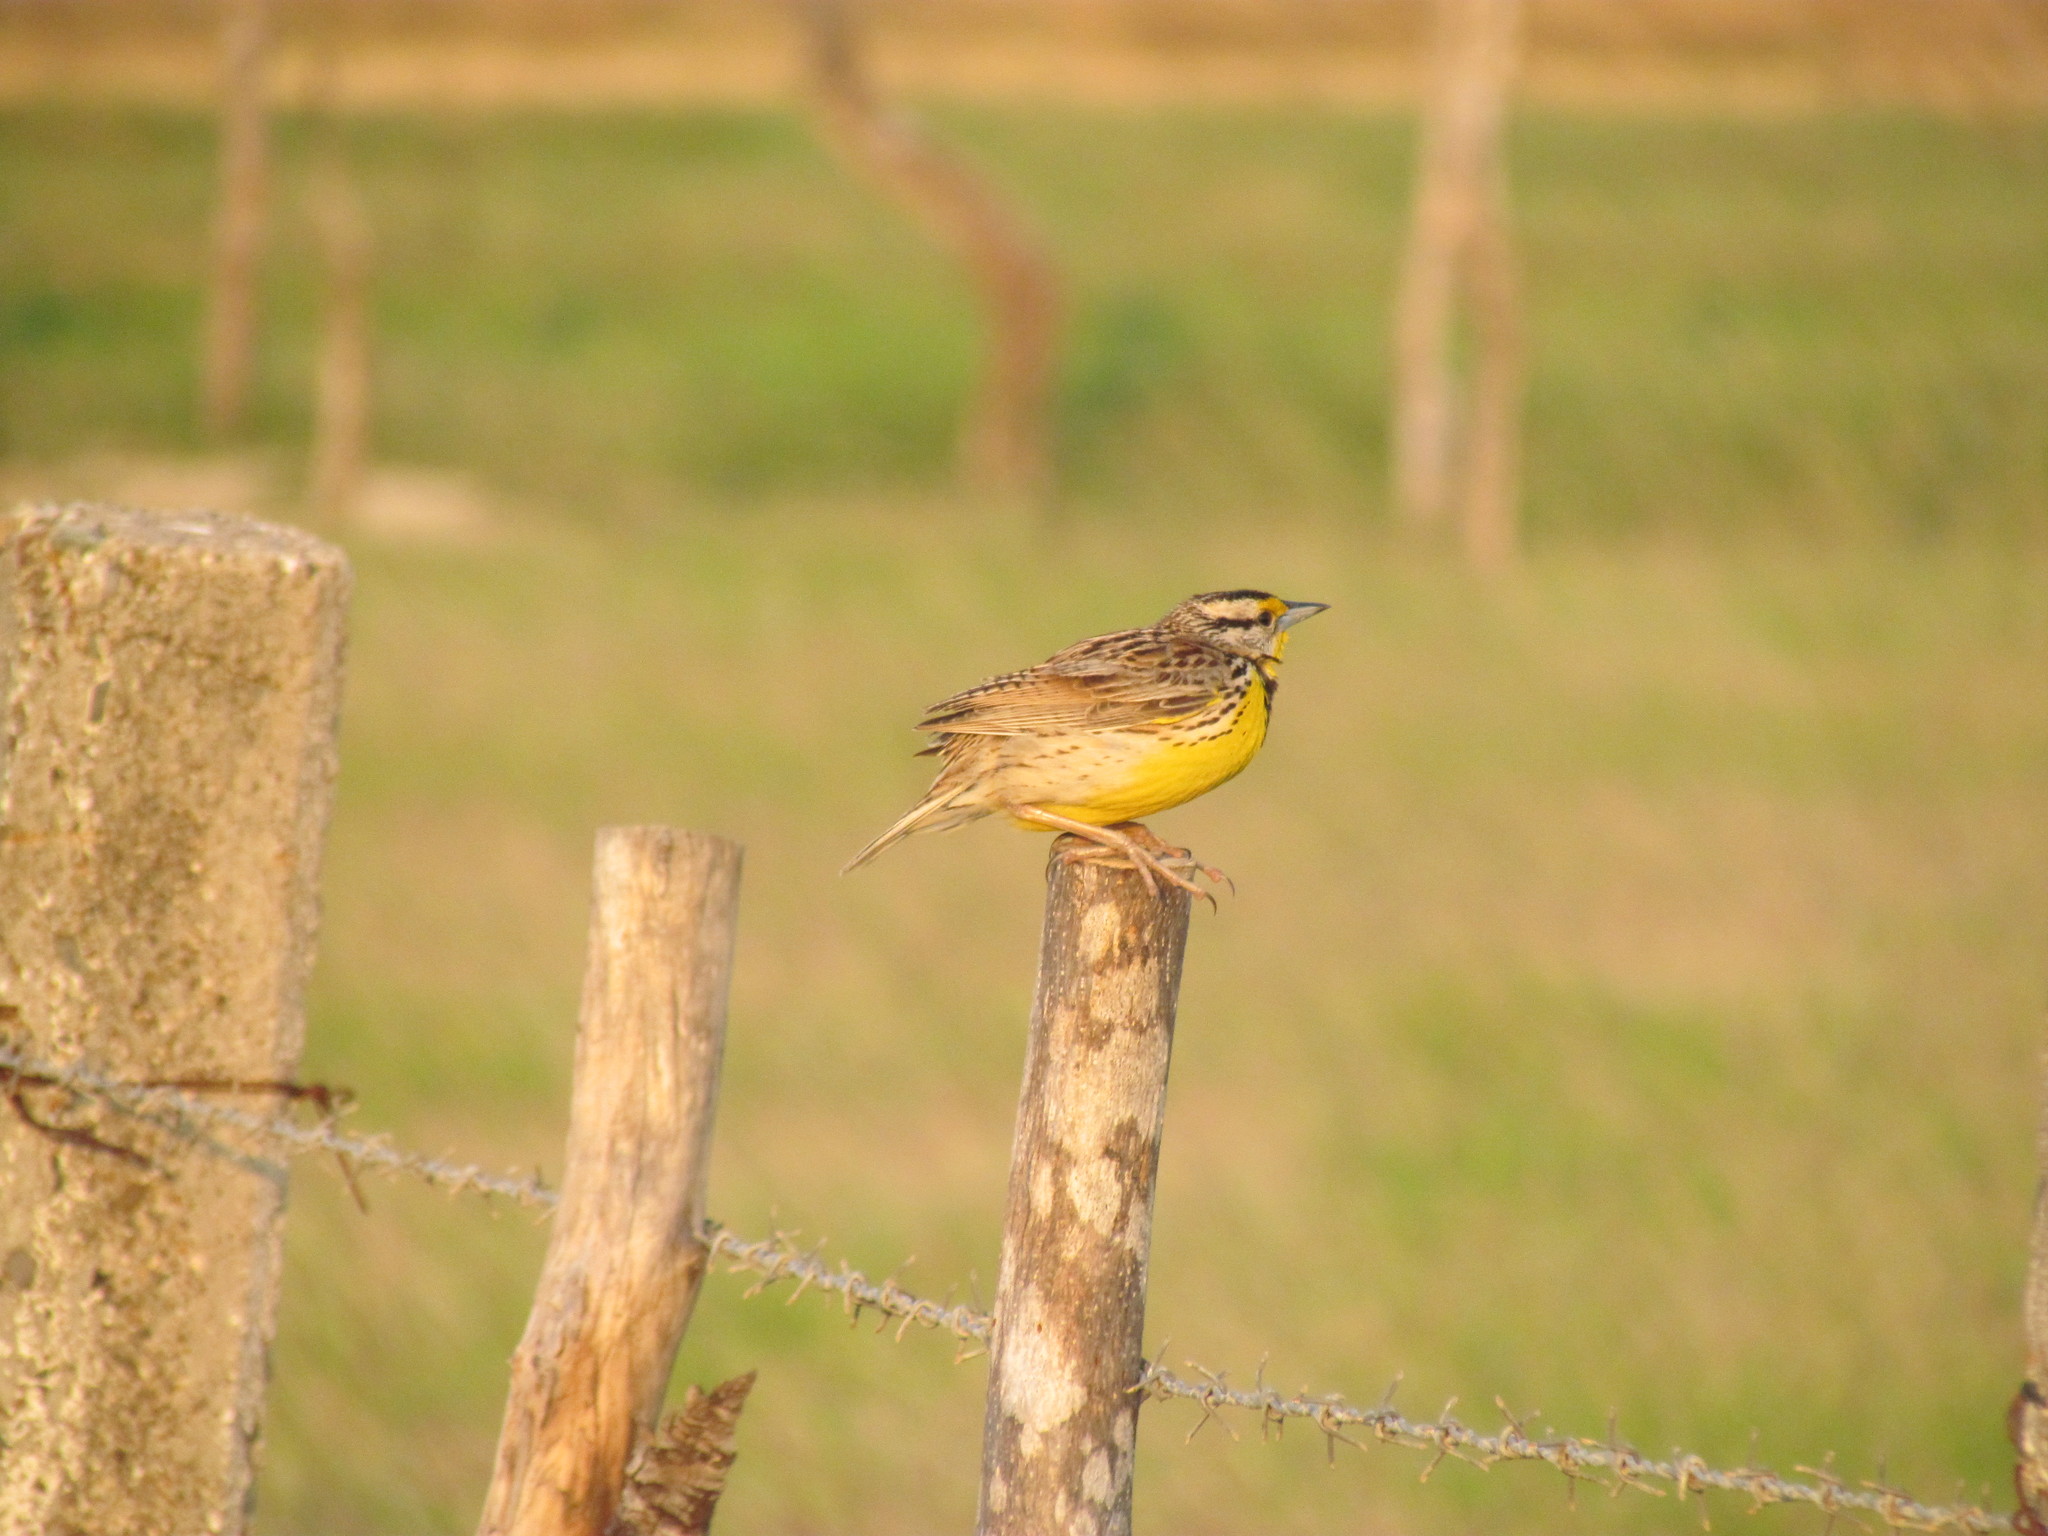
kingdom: Animalia
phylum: Chordata
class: Aves
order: Passeriformes
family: Icteridae
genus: Sturnella
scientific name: Sturnella magna
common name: Eastern meadowlark
